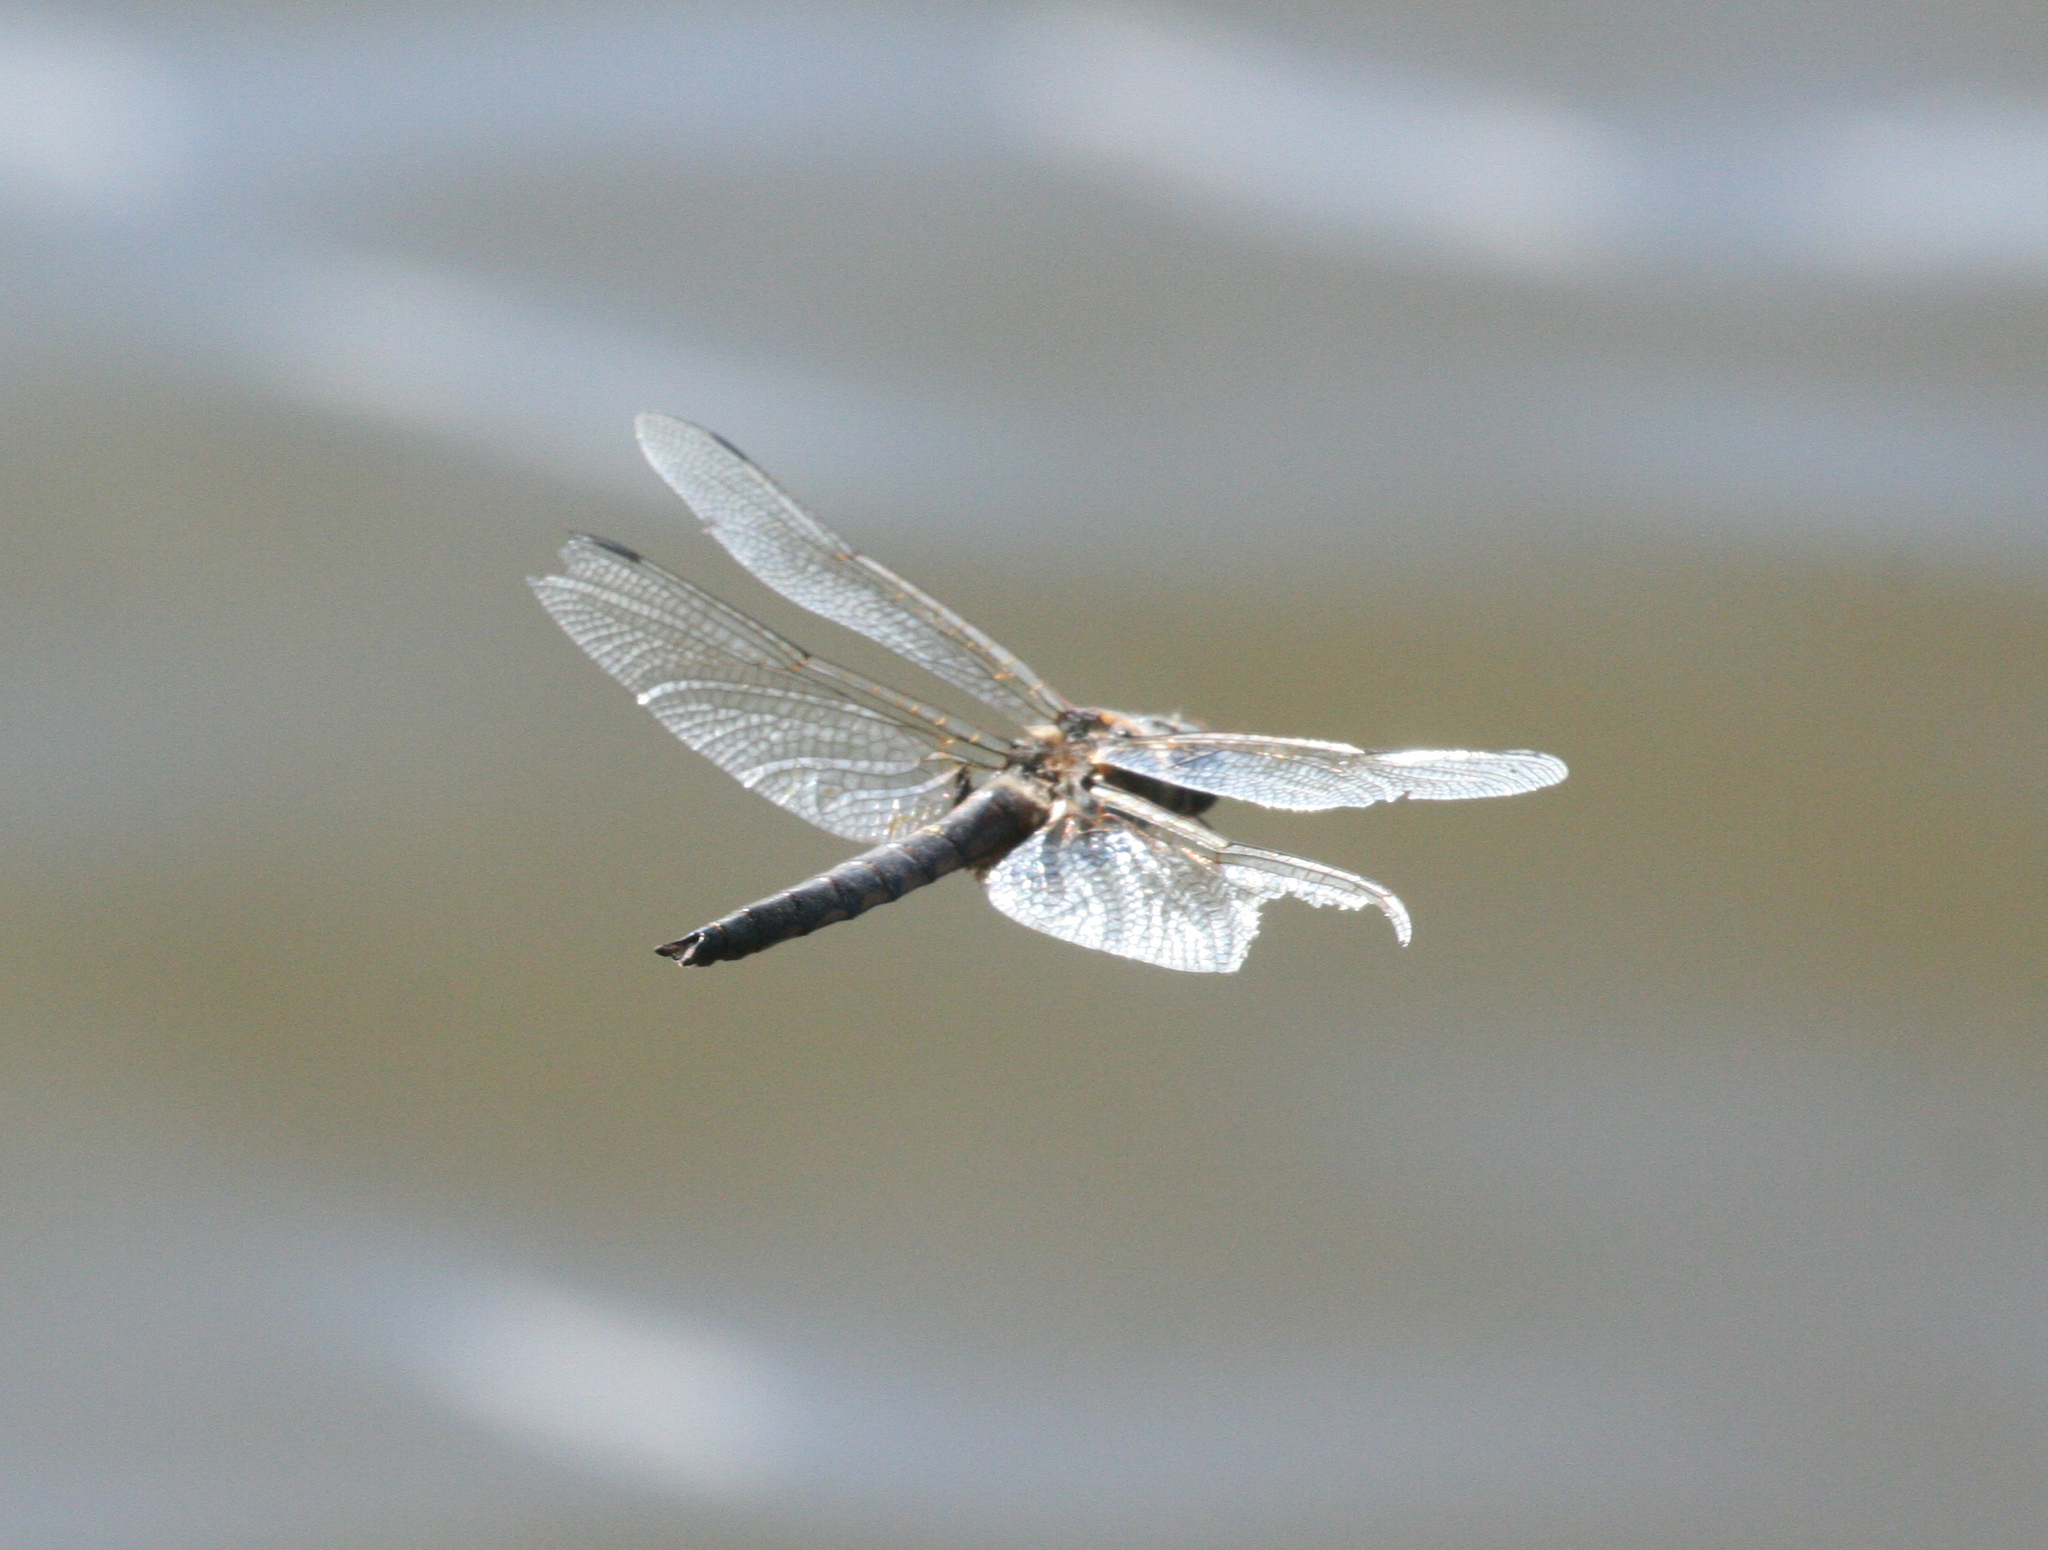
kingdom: Animalia
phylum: Arthropoda
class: Insecta
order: Odonata
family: Corduliidae
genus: Epitheca
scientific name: Epitheca bimaculata
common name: Eurasian baskettail
